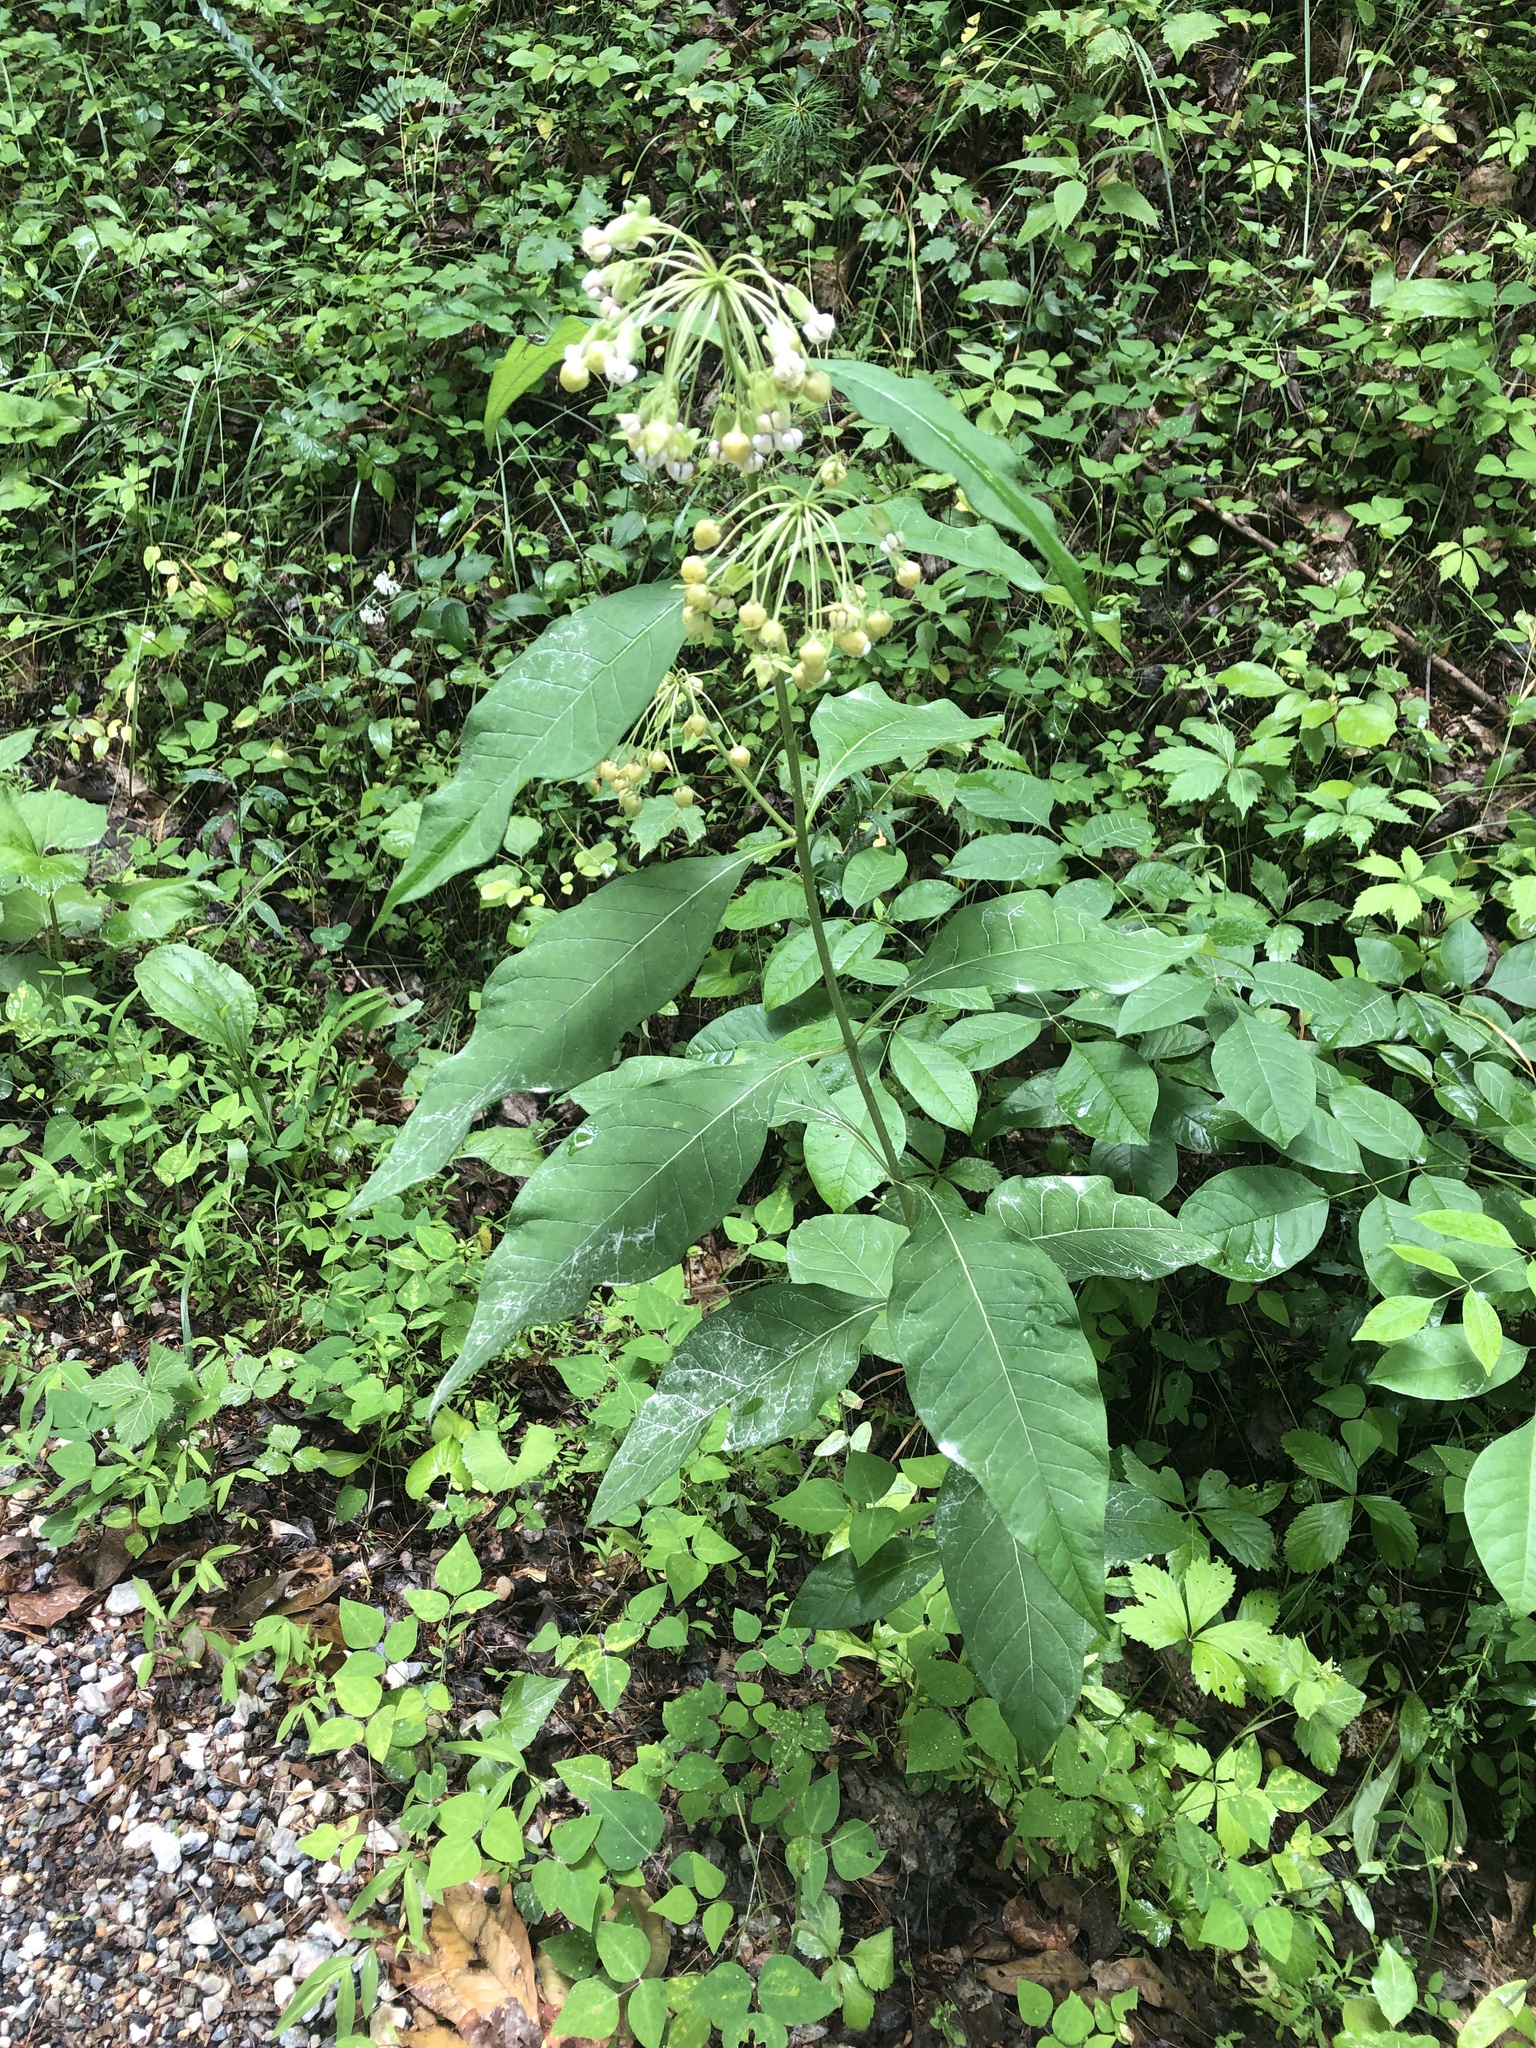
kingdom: Plantae
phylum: Tracheophyta
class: Magnoliopsida
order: Gentianales
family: Apocynaceae
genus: Asclepias
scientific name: Asclepias exaltata
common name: Poke milkweed
